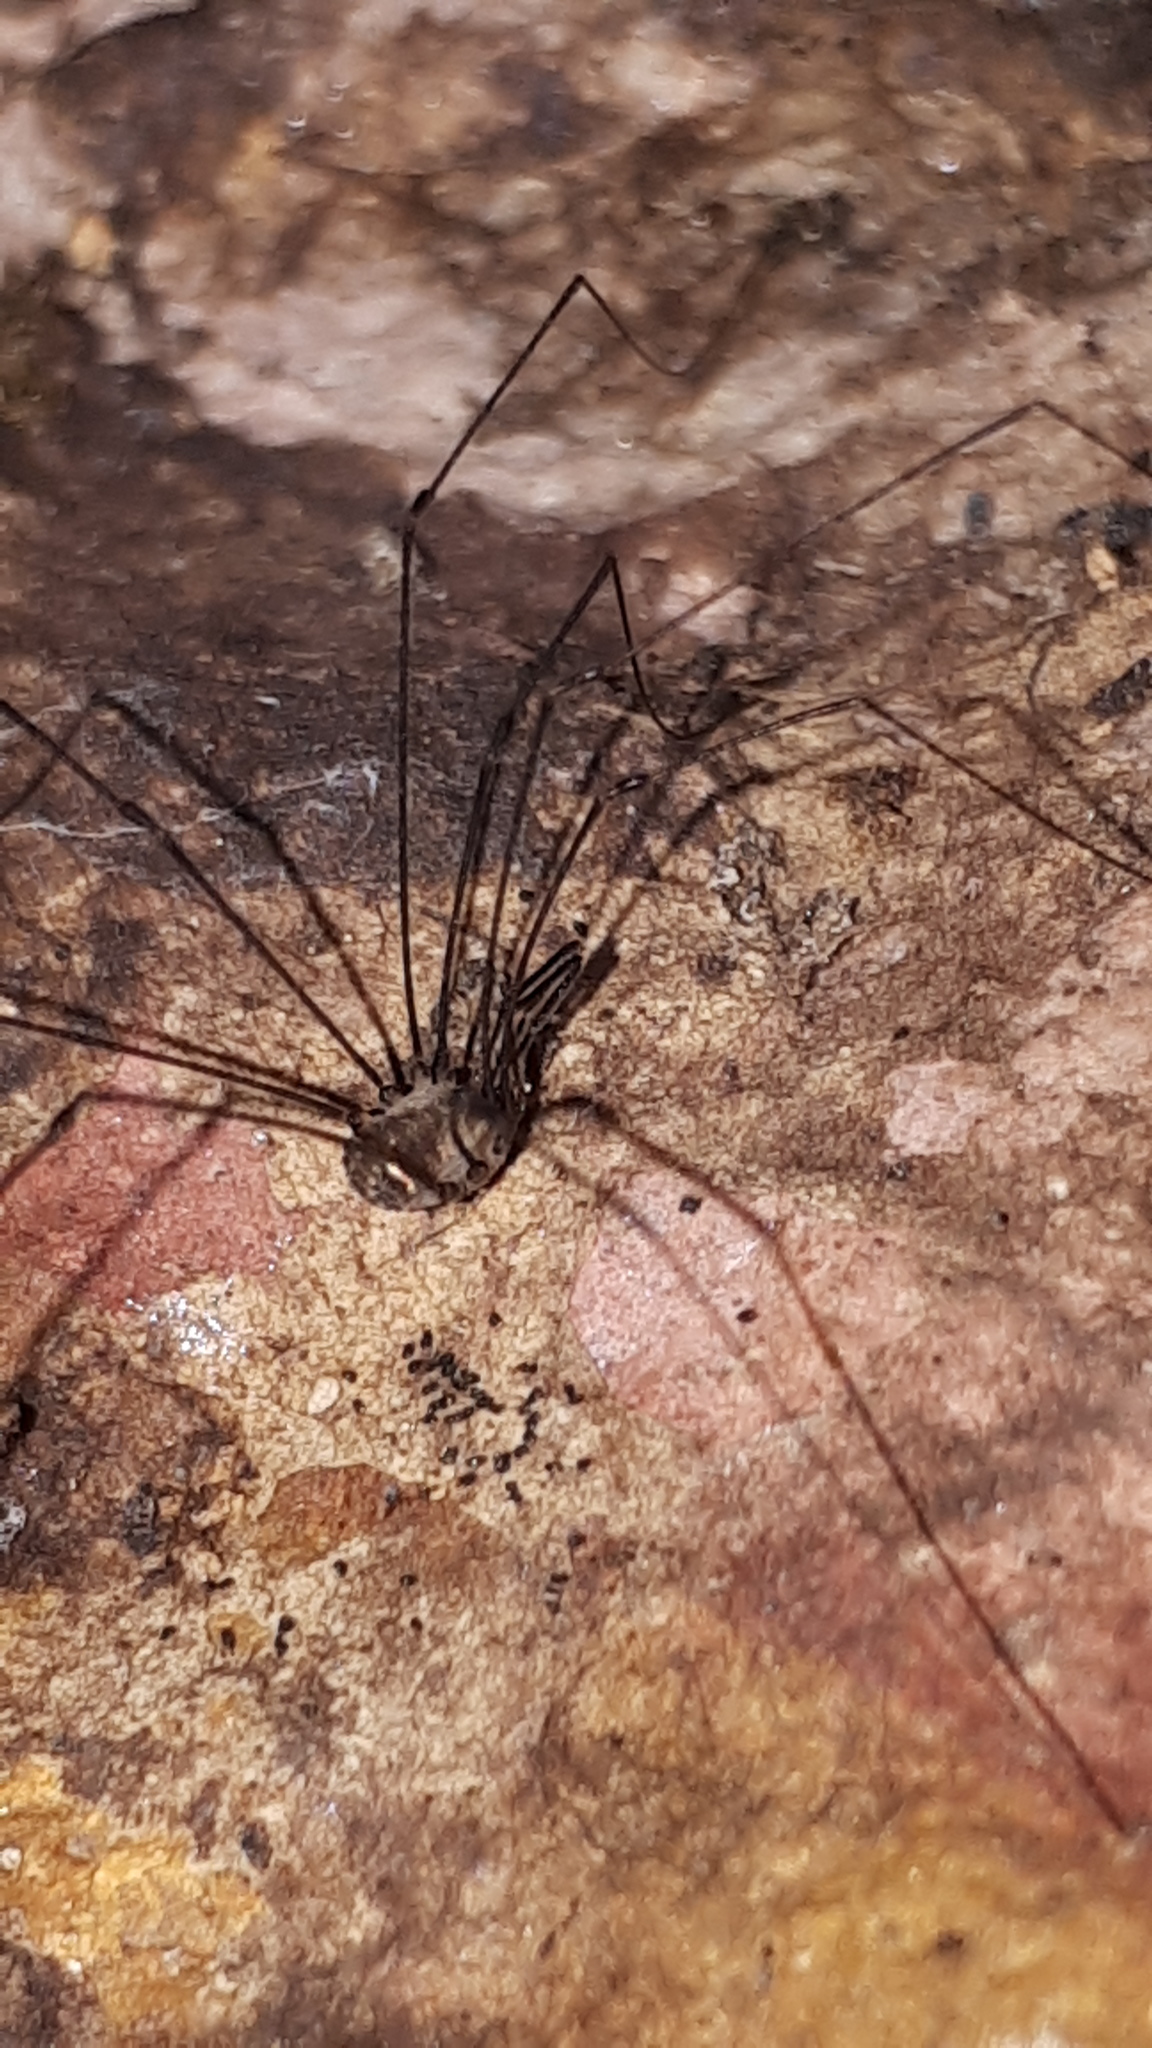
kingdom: Animalia
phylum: Arthropoda
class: Arachnida
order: Opiliones
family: Nemastomatidae
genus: Mitostoma
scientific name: Mitostoma chrysomelas
